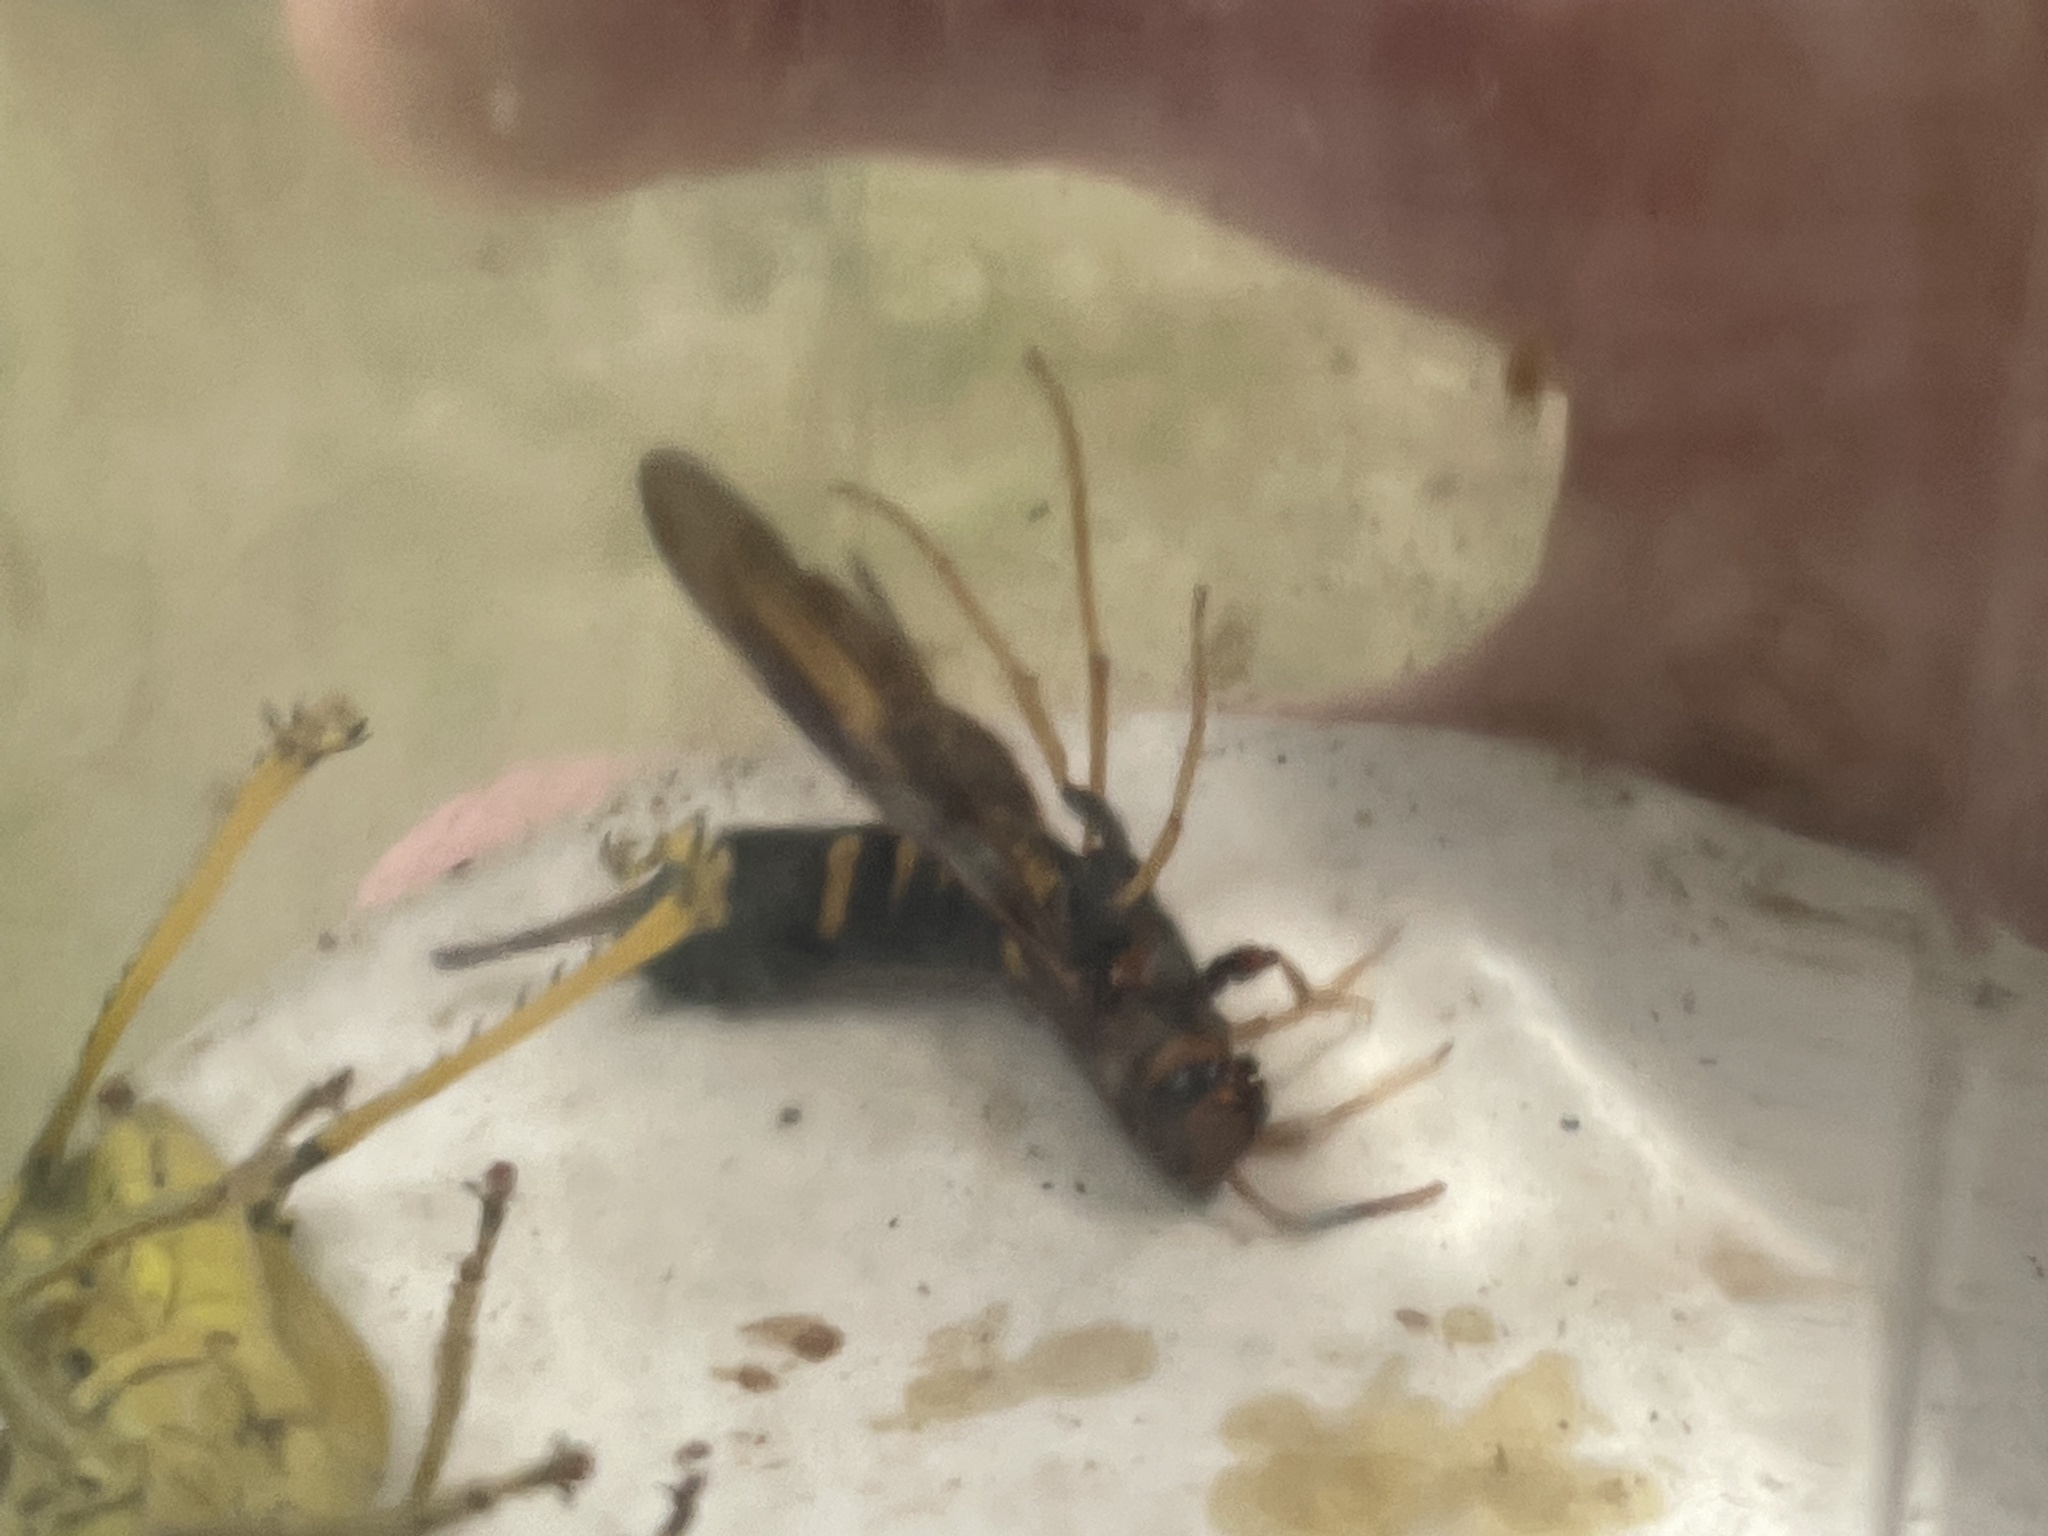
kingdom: Animalia
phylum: Arthropoda
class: Insecta
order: Hymenoptera
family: Siricidae
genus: Tremex
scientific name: Tremex columba
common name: Wasp
